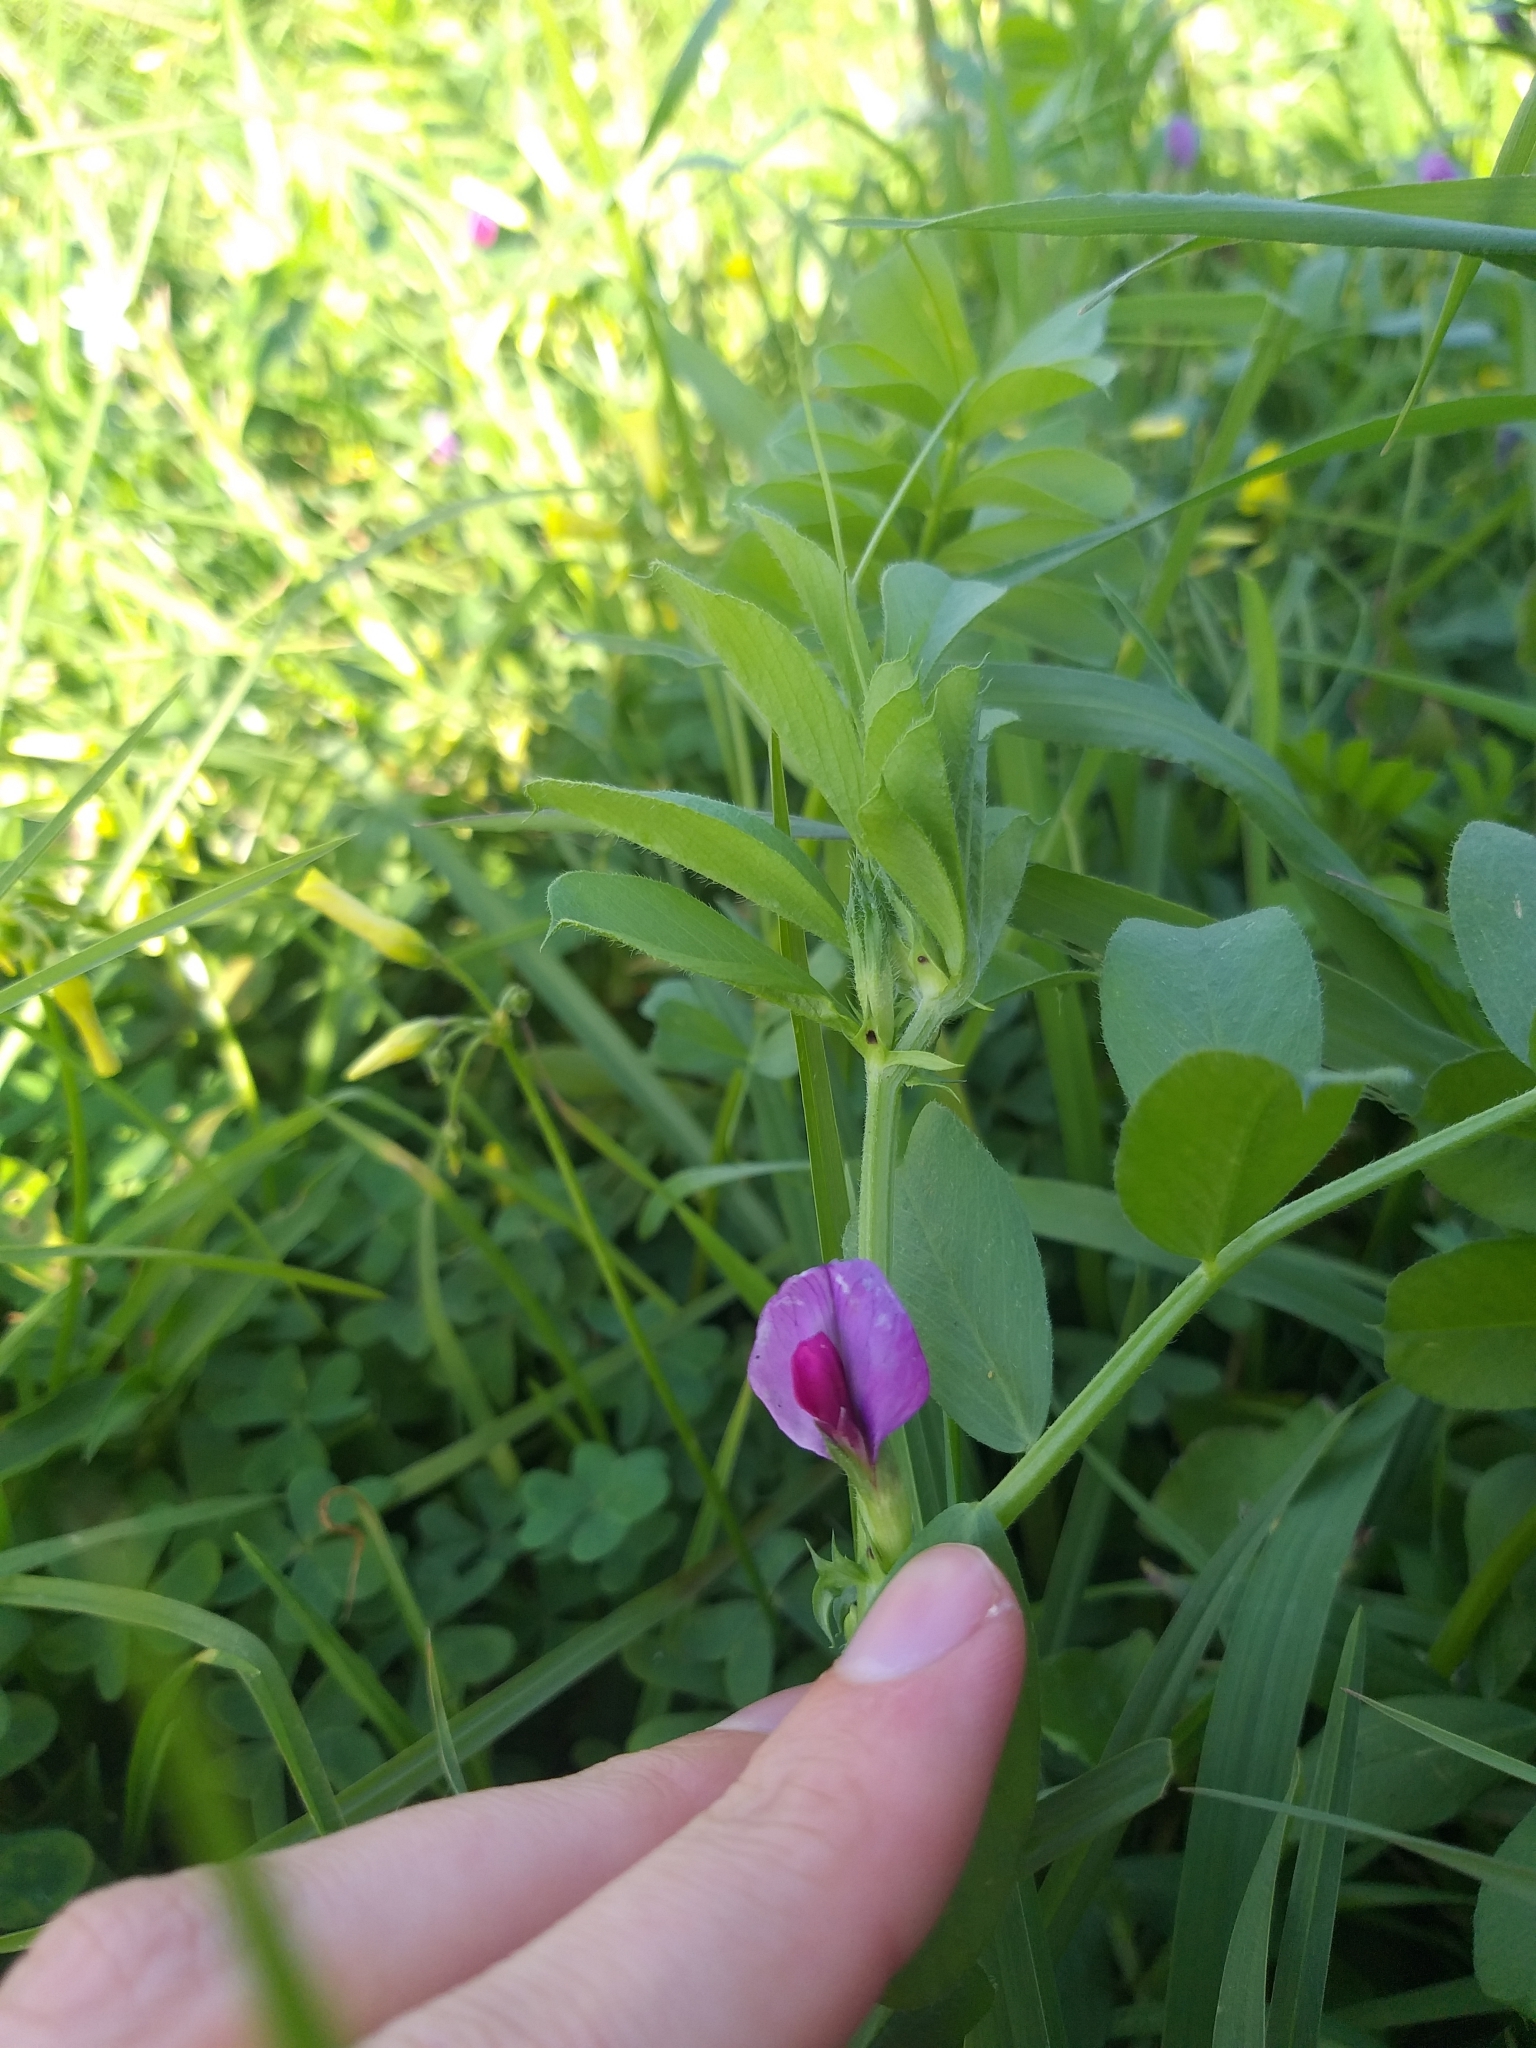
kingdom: Plantae
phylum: Tracheophyta
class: Magnoliopsida
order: Fabales
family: Fabaceae
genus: Vicia
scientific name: Vicia sativa
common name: Garden vetch
